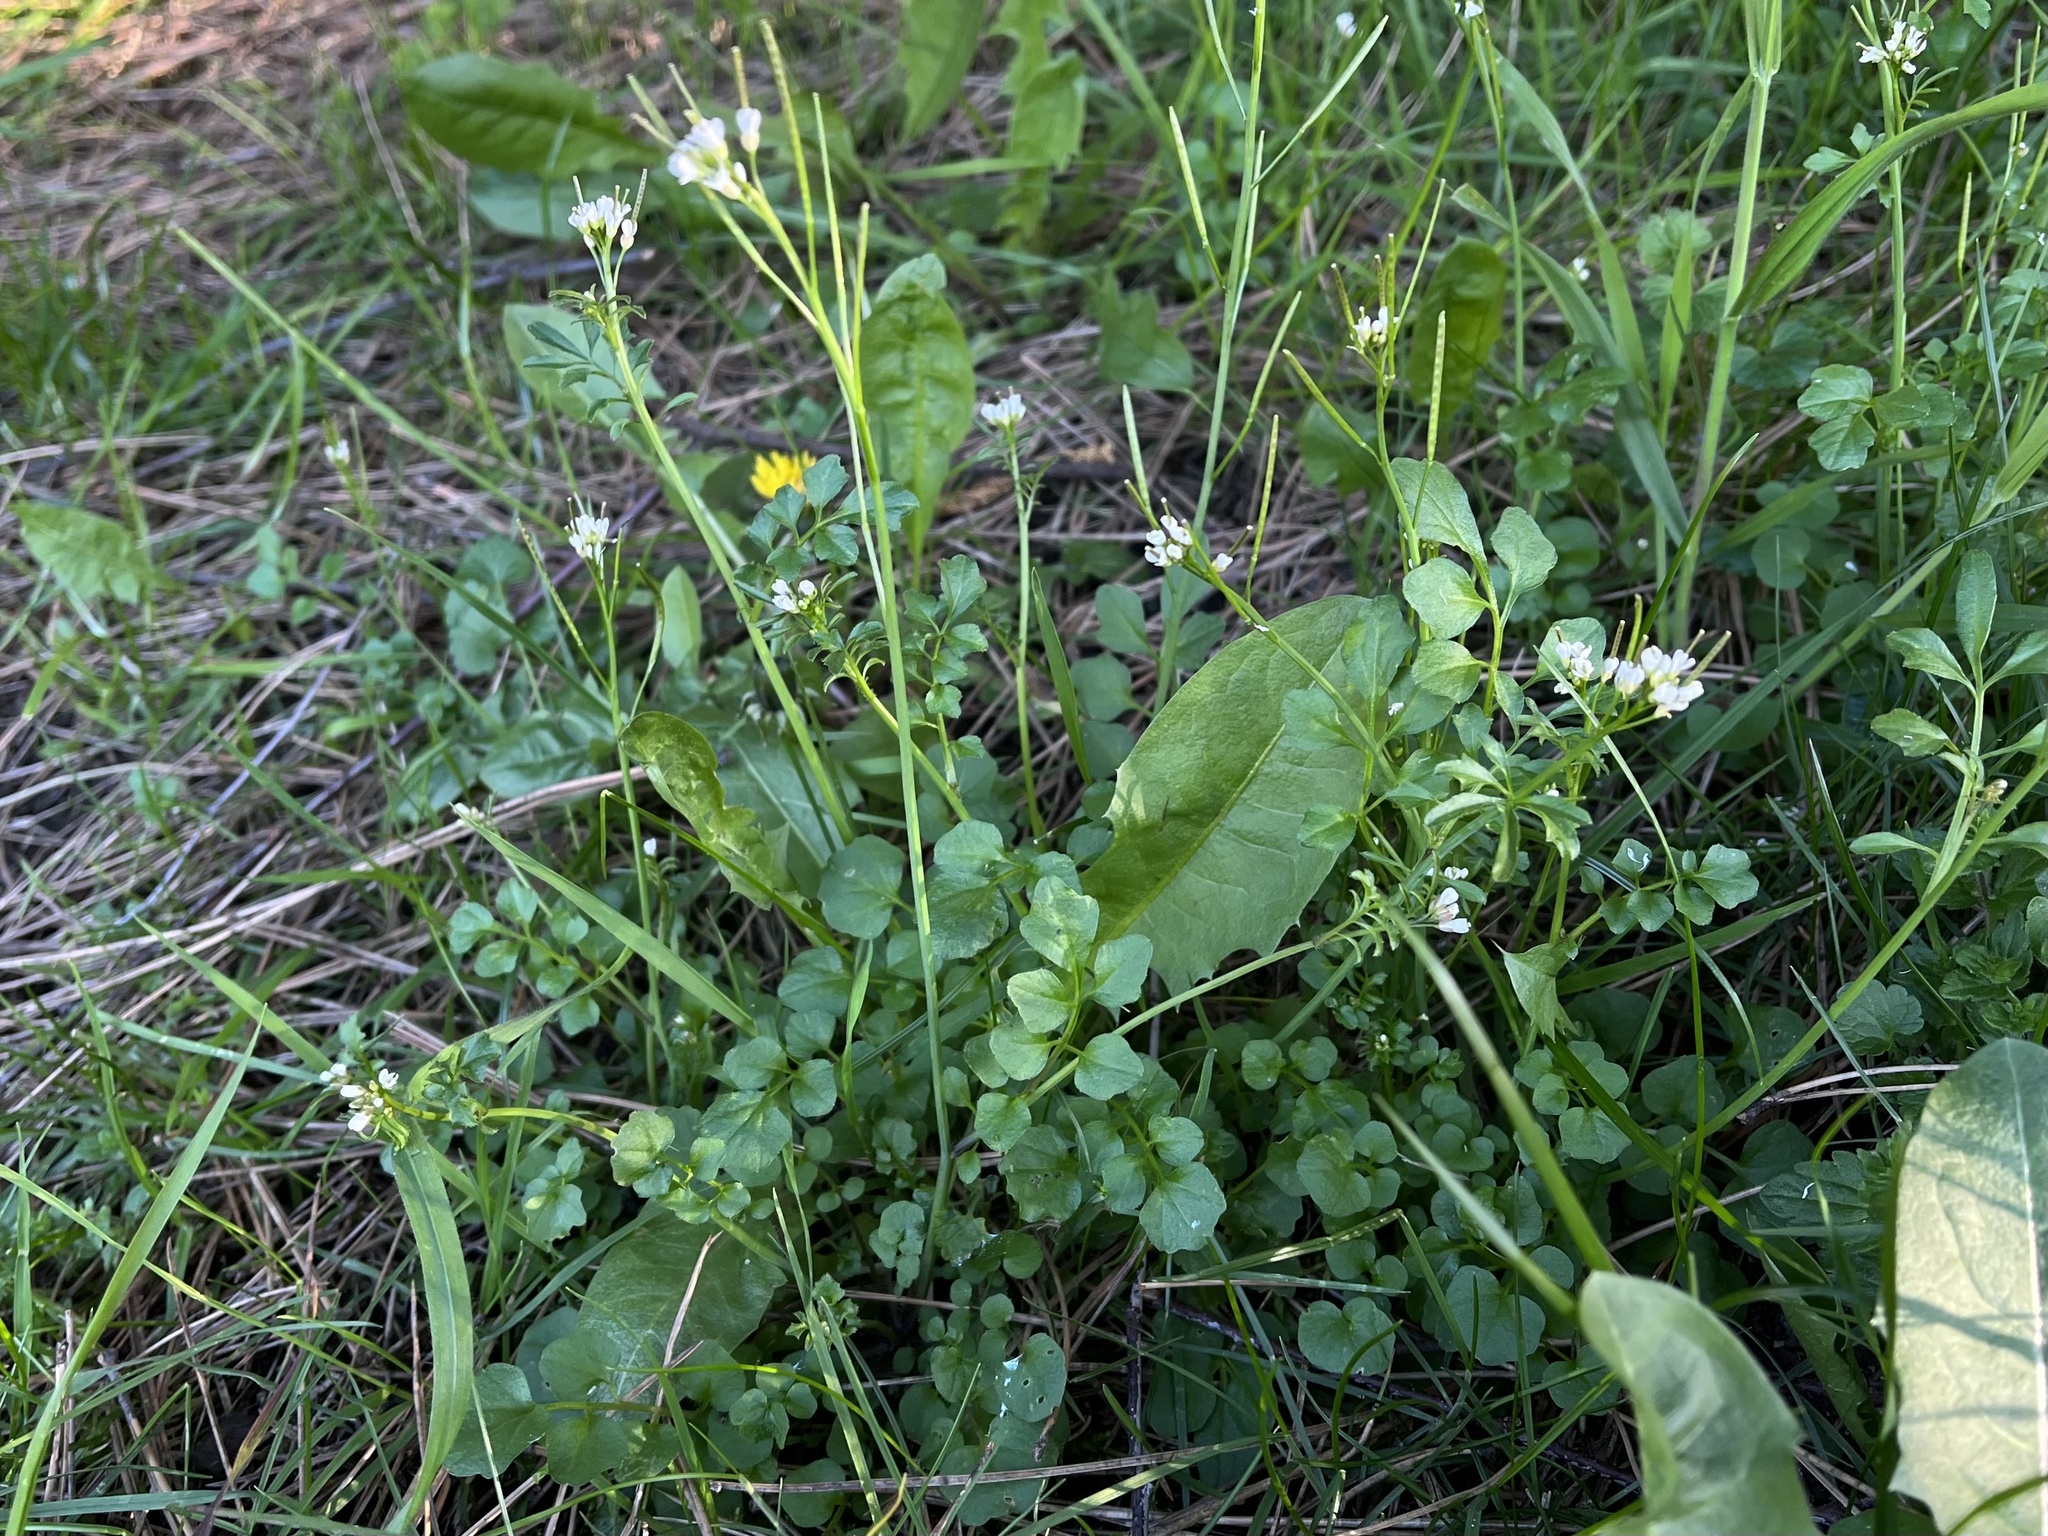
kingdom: Plantae
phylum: Tracheophyta
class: Magnoliopsida
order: Brassicales
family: Brassicaceae
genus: Cardamine
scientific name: Cardamine hirsuta
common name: Hairy bittercress
